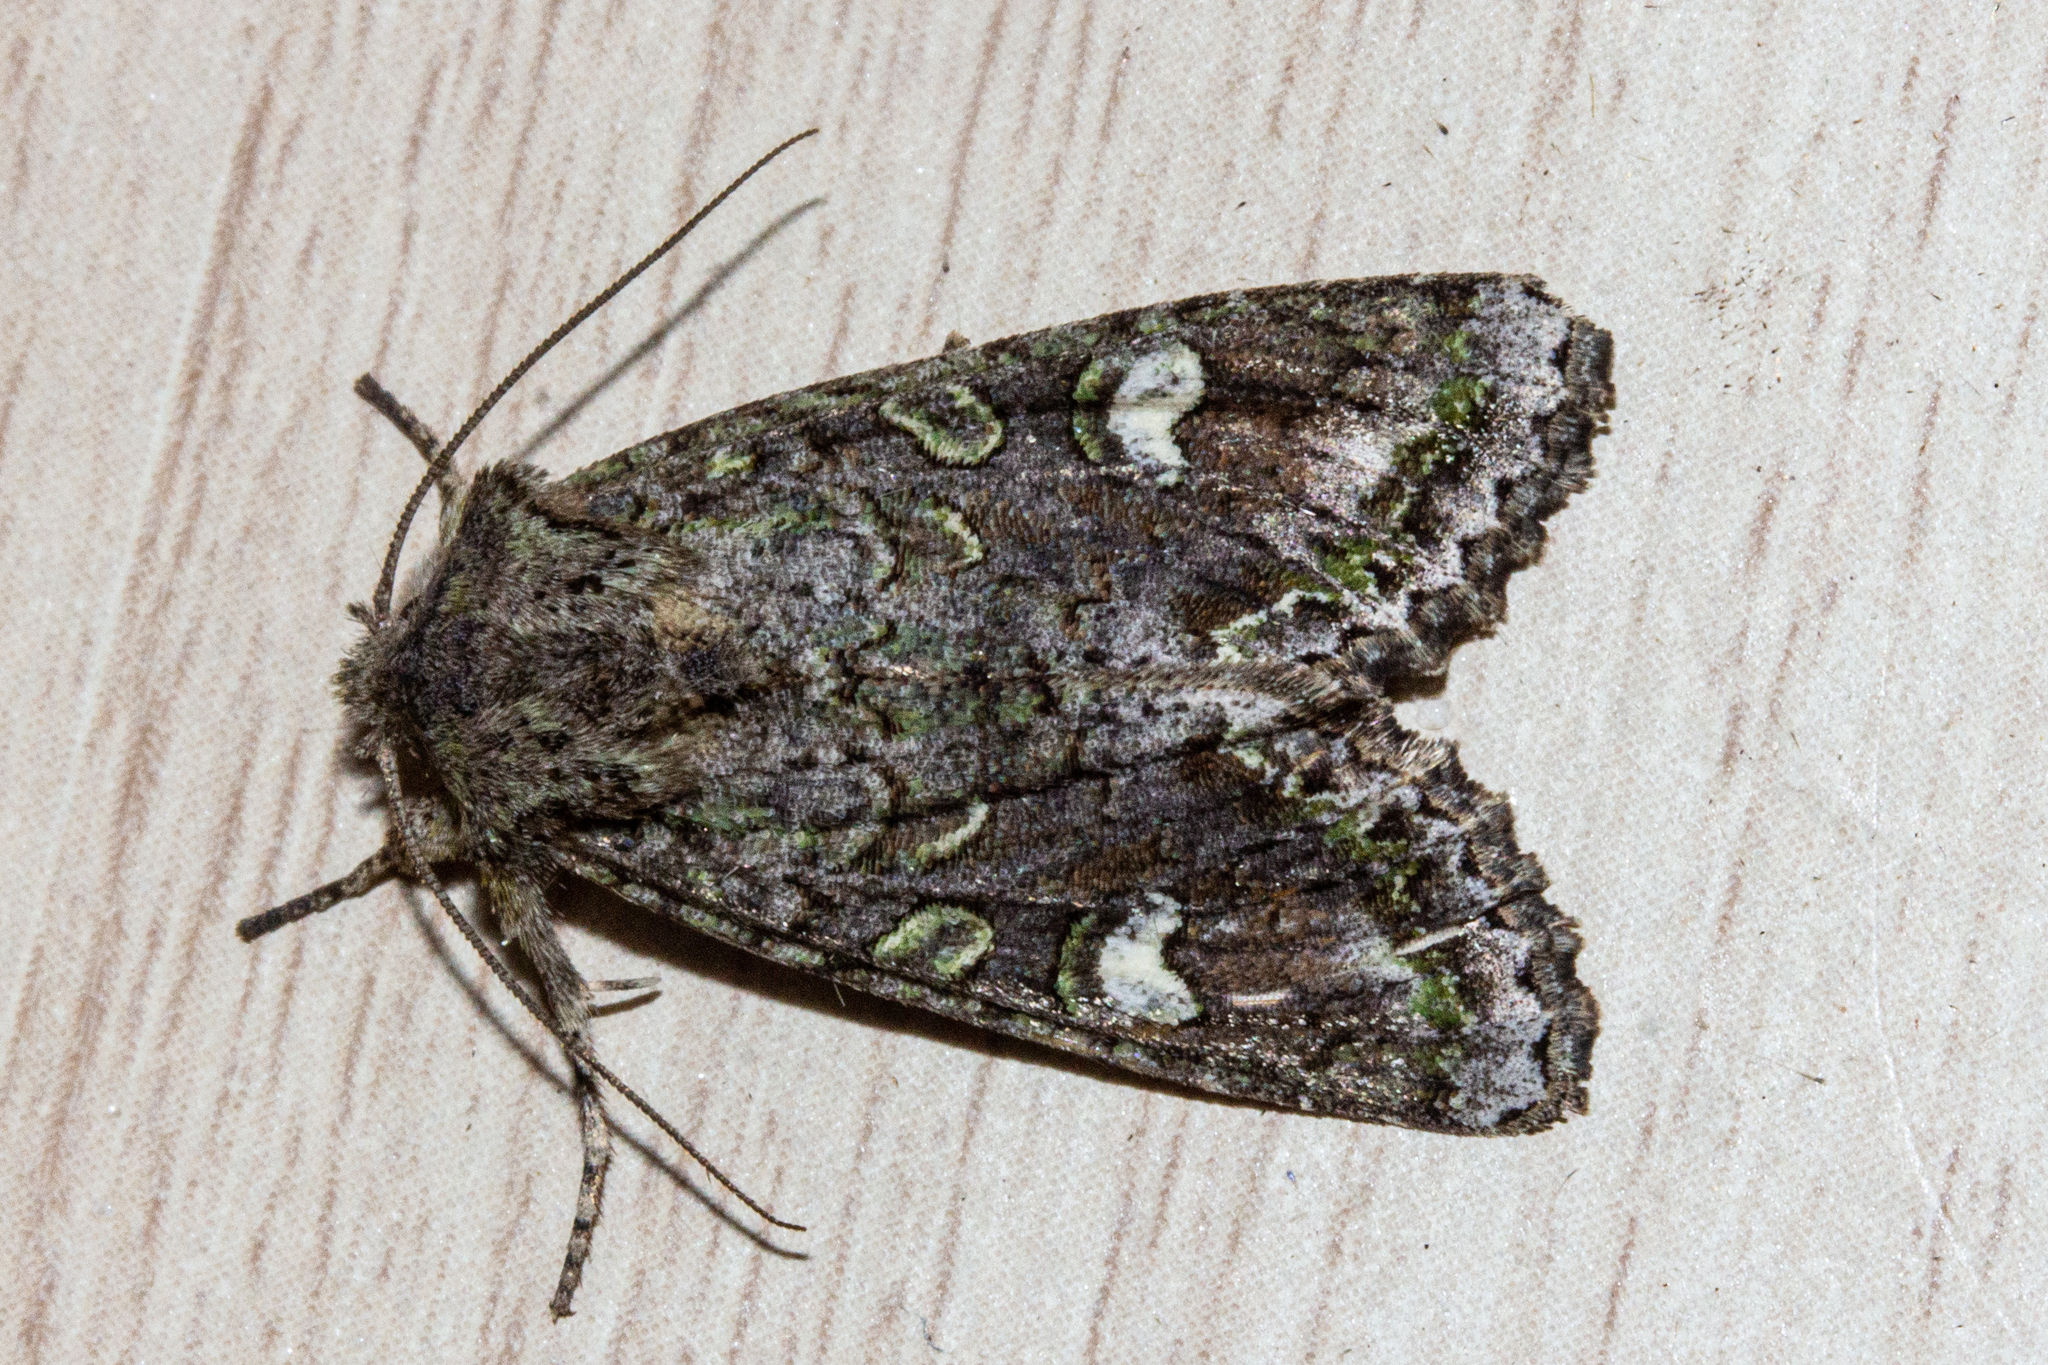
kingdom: Animalia
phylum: Arthropoda
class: Insecta
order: Lepidoptera
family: Noctuidae
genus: Ichneutica
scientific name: Ichneutica insignis
